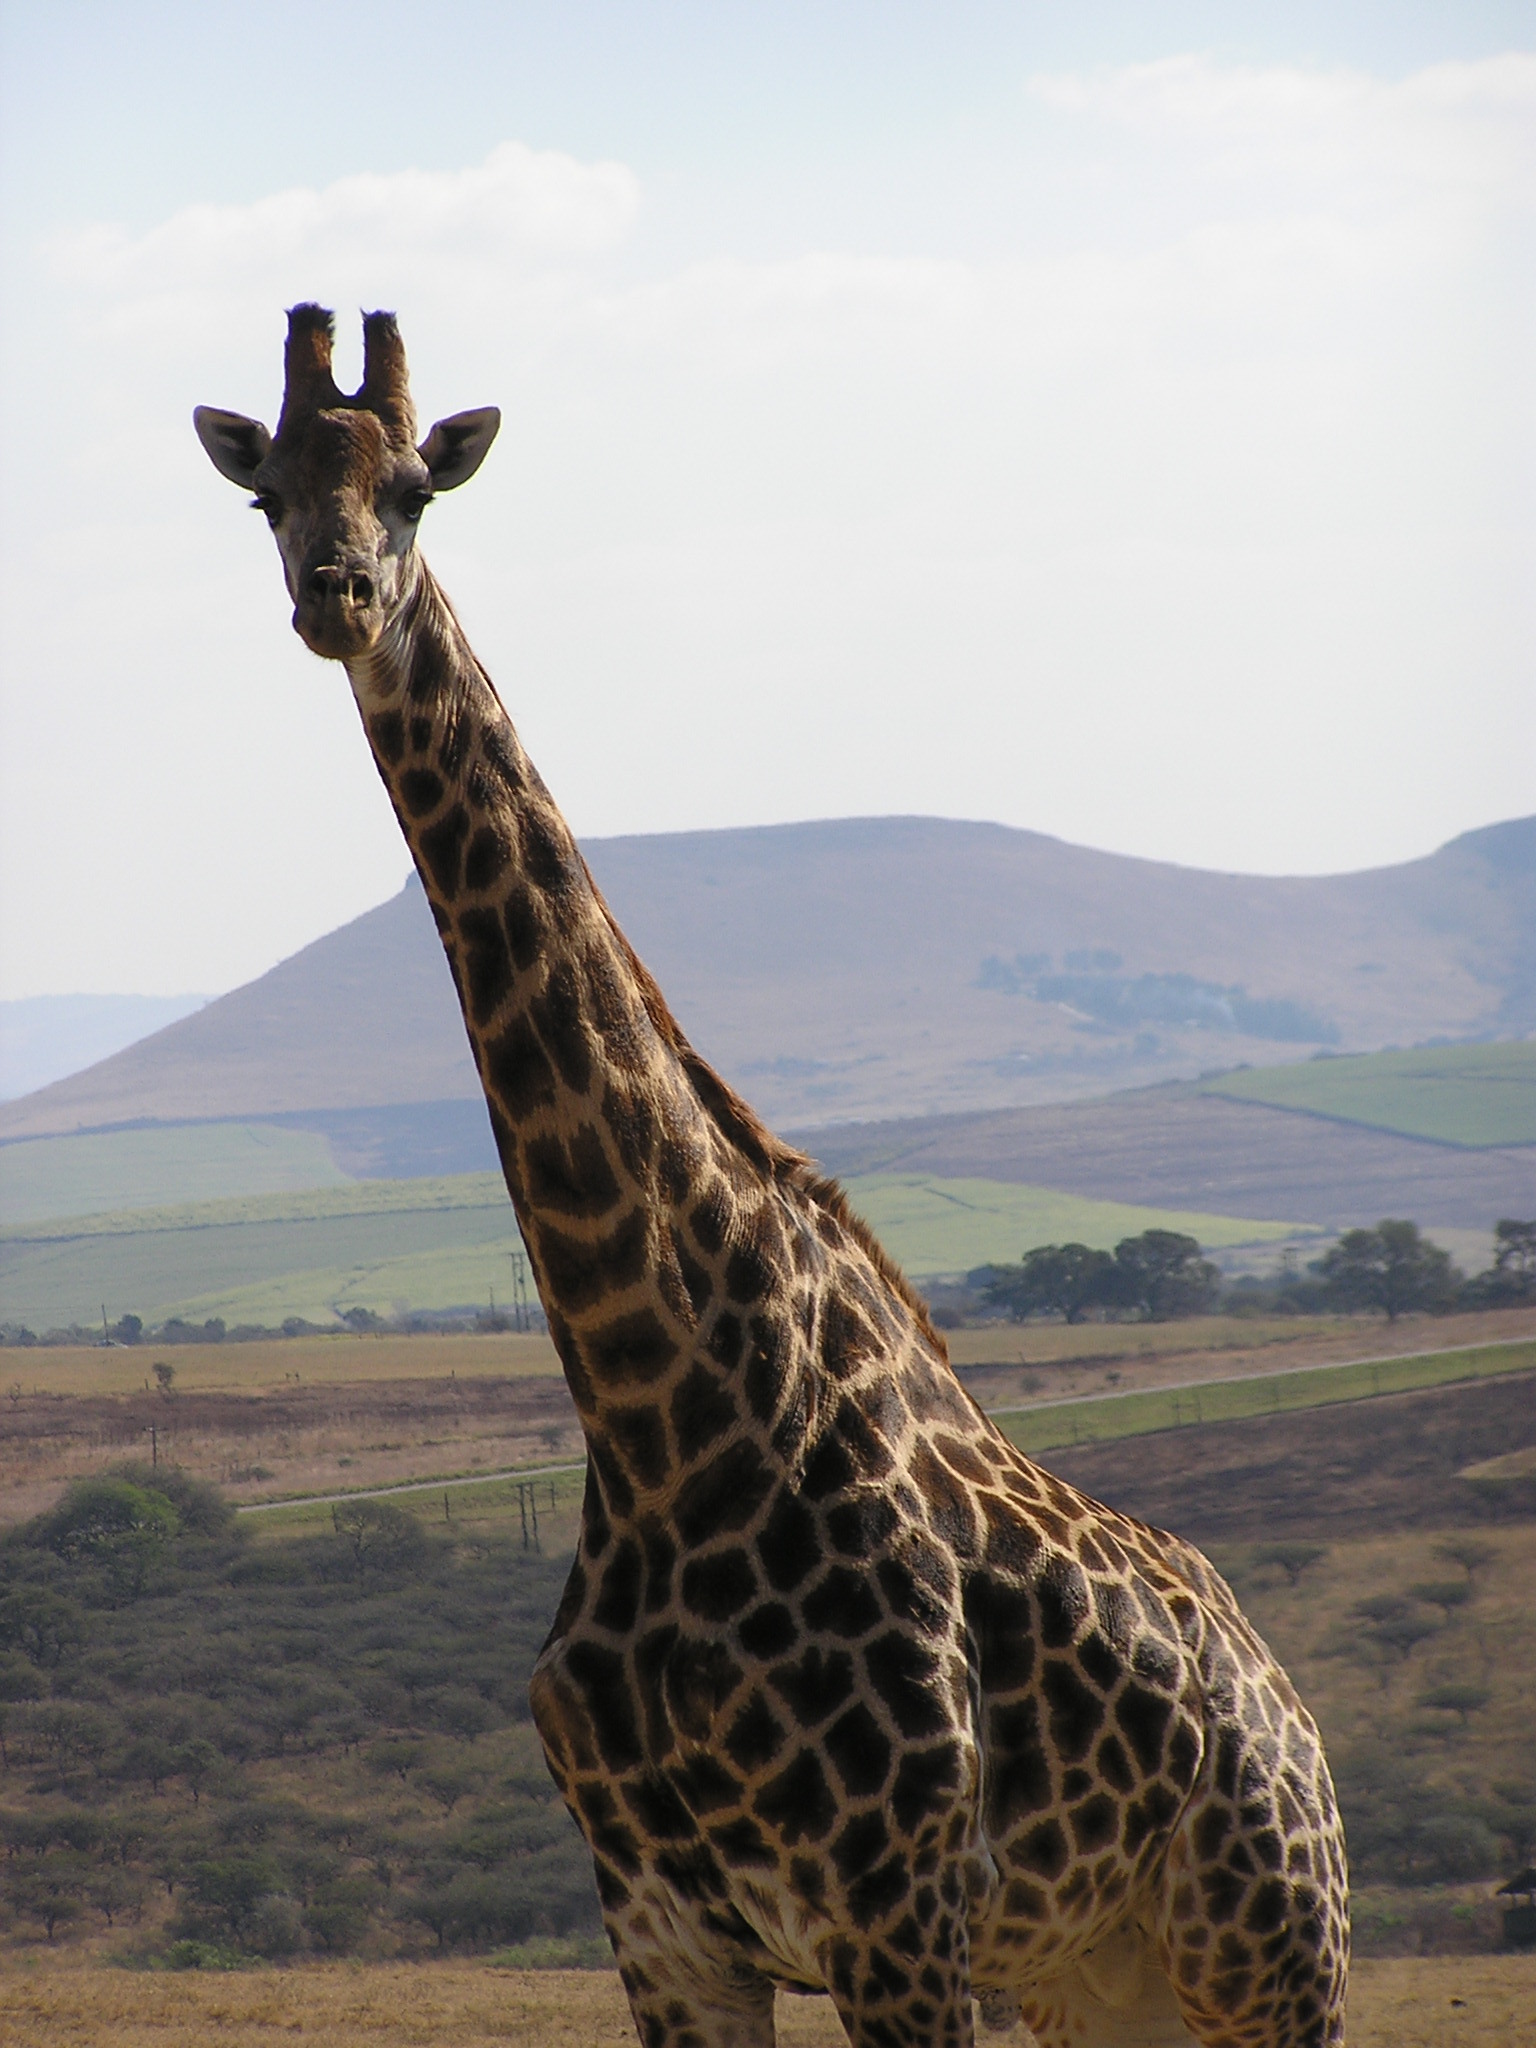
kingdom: Animalia
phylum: Chordata
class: Mammalia
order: Artiodactyla
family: Giraffidae
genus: Giraffa
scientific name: Giraffa giraffa
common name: Southern giraffe
